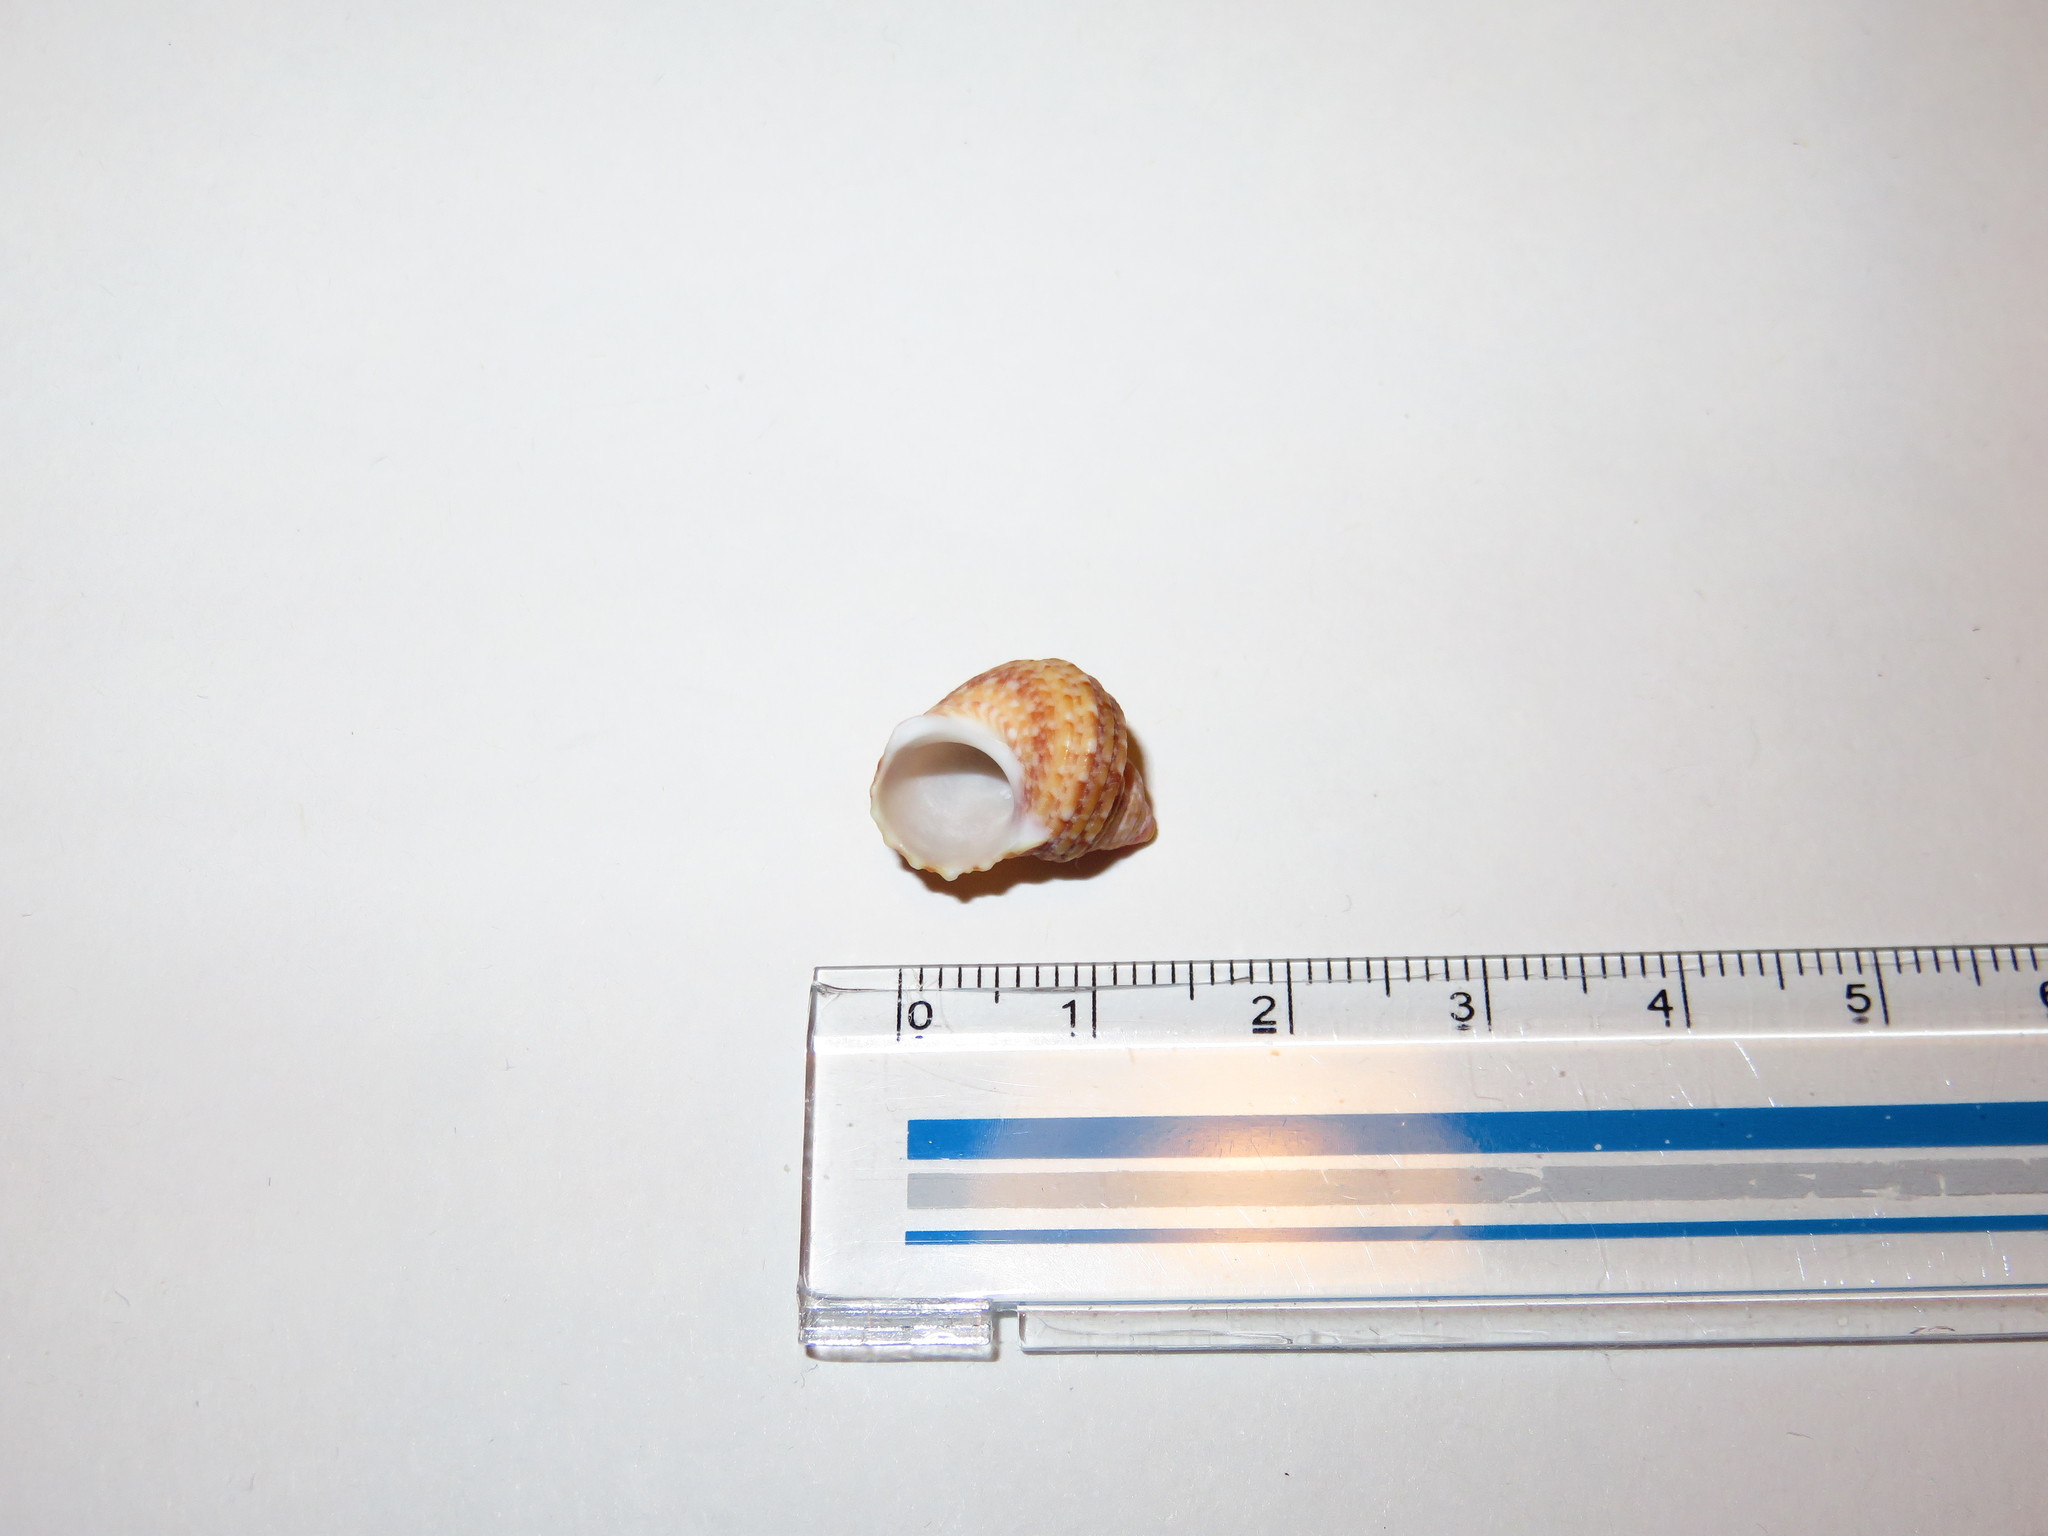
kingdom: Animalia
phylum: Mollusca
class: Gastropoda
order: Trochida
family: Turbinidae
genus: Turbo
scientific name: Turbo stenogyrus
